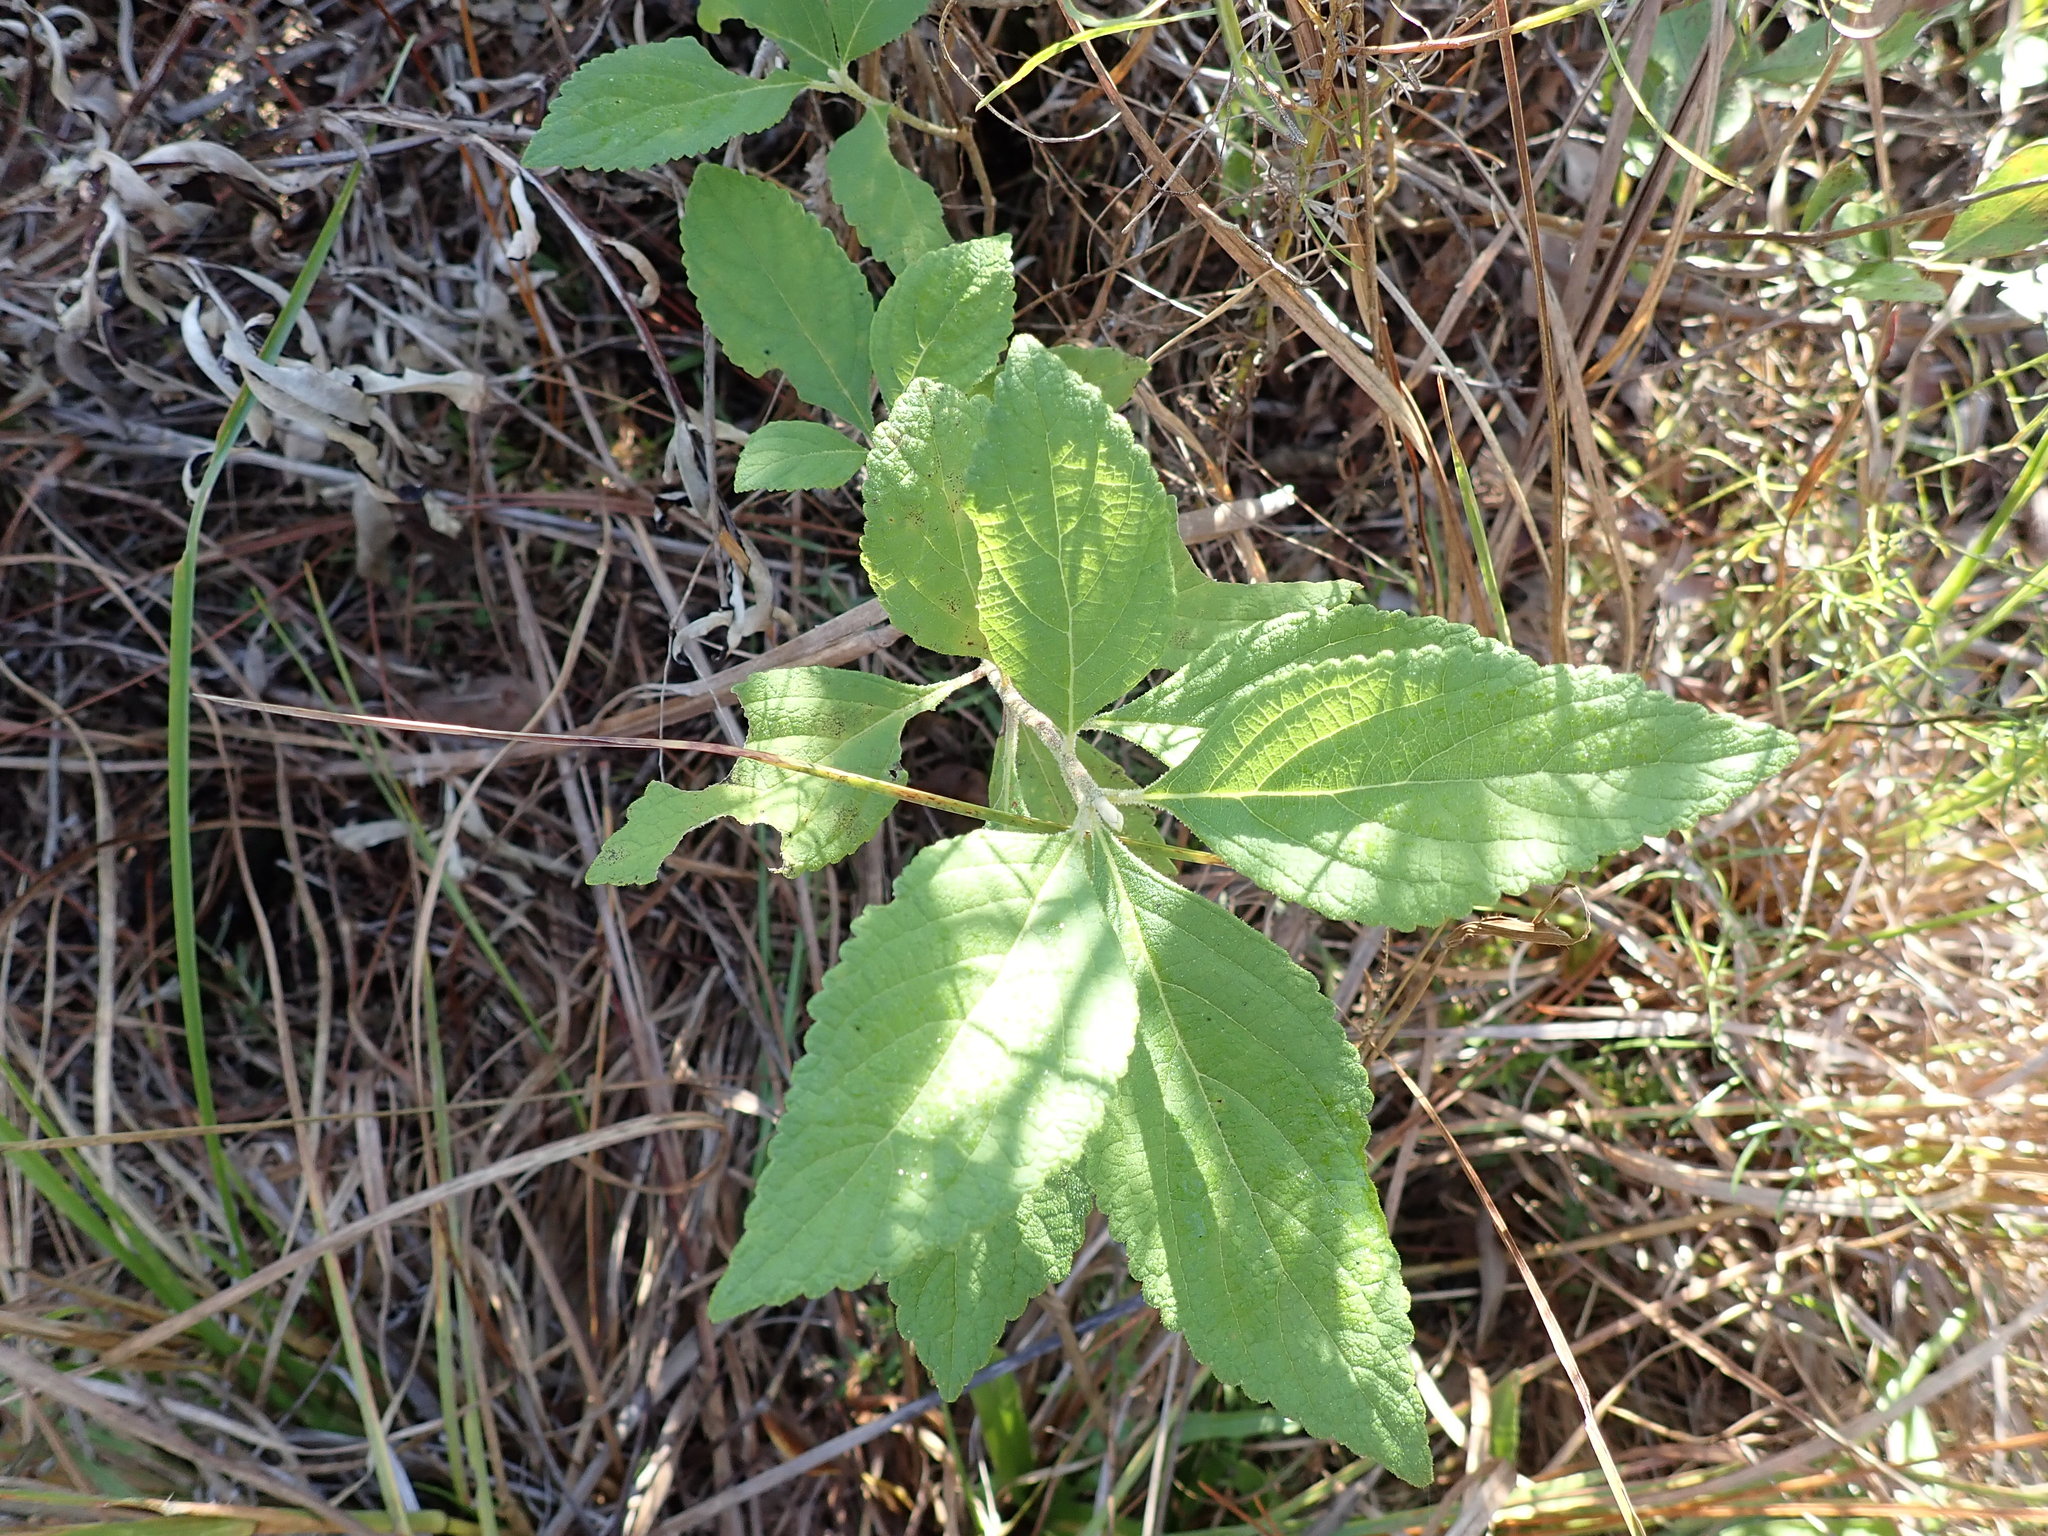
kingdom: Plantae
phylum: Tracheophyta
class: Magnoliopsida
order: Lamiales
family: Lamiaceae
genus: Callicarpa
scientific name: Callicarpa americana
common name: American beautyberry
